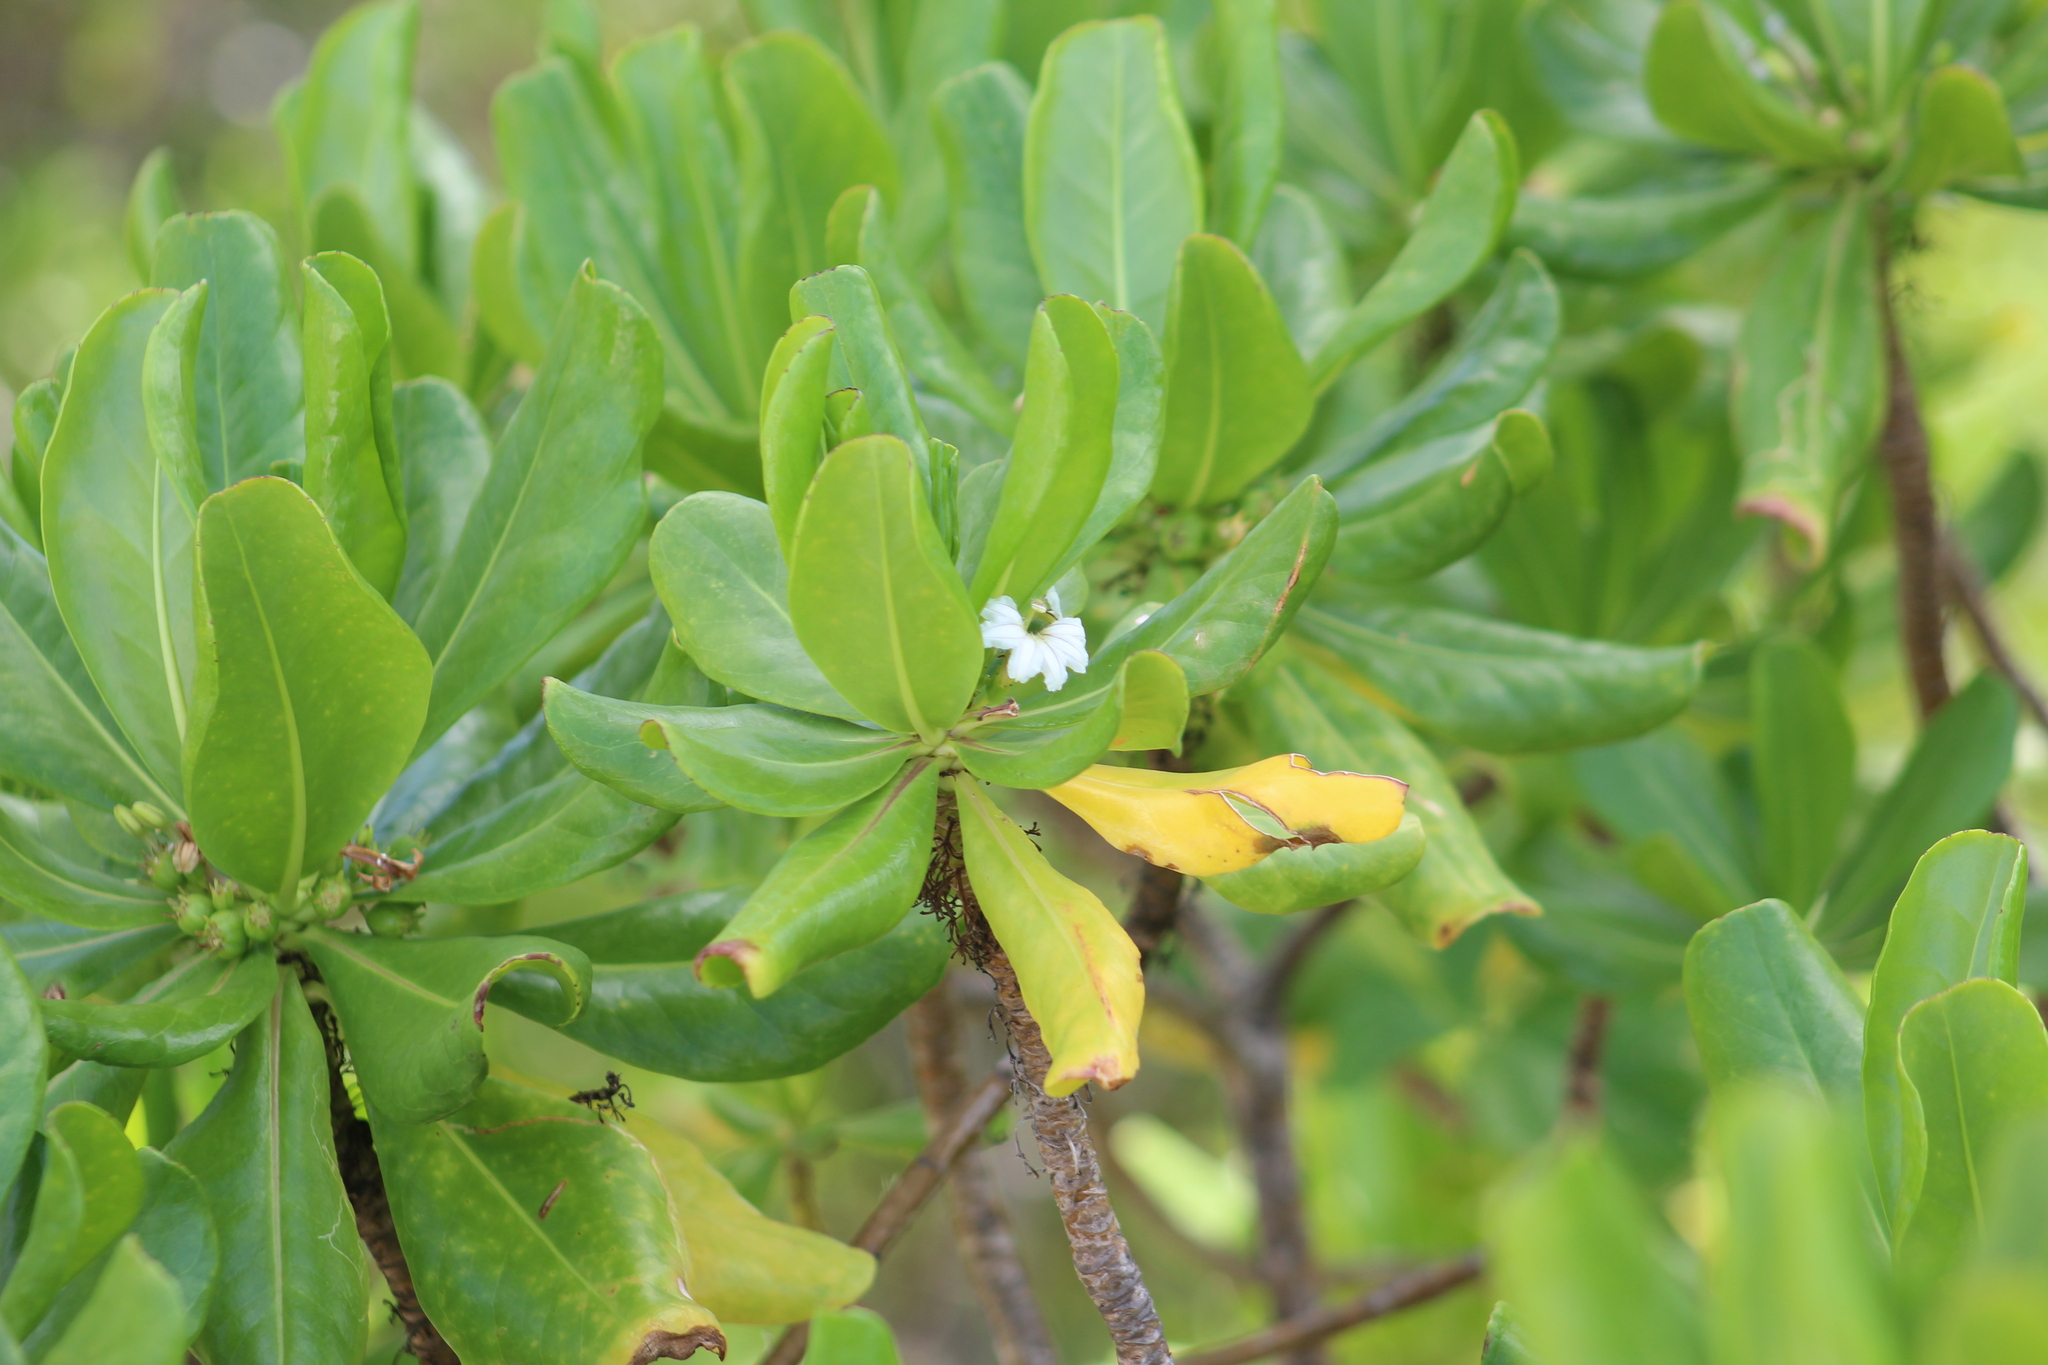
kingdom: Plantae
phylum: Tracheophyta
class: Magnoliopsida
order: Asterales
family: Goodeniaceae
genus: Scaevola
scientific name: Scaevola taccada
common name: Sea lettucetree
